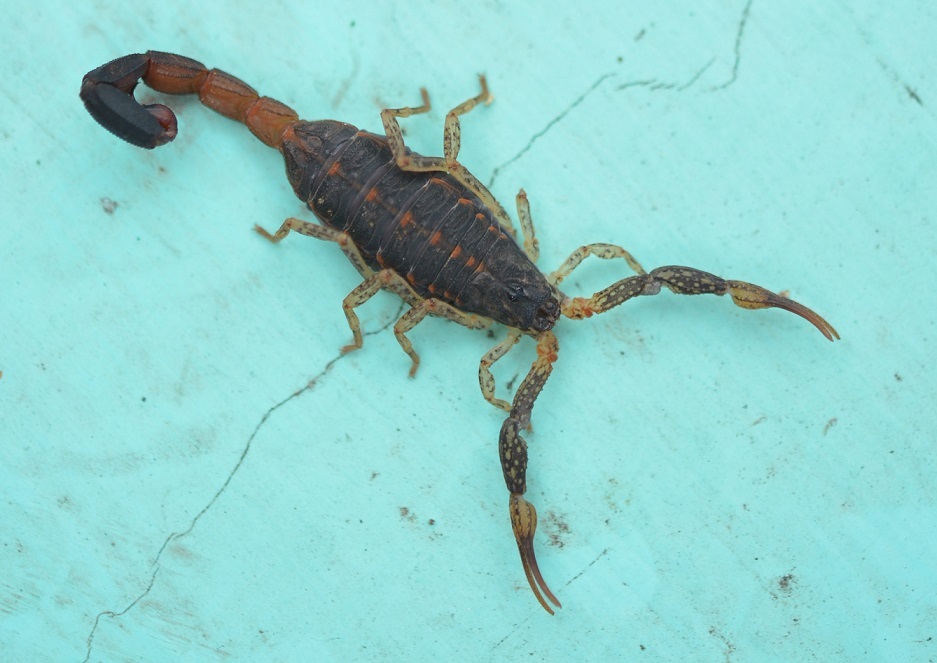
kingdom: Animalia
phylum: Arthropoda
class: Arachnida
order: Scorpiones
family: Buthidae
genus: Centruroides
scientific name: Centruroides chamulaensis
